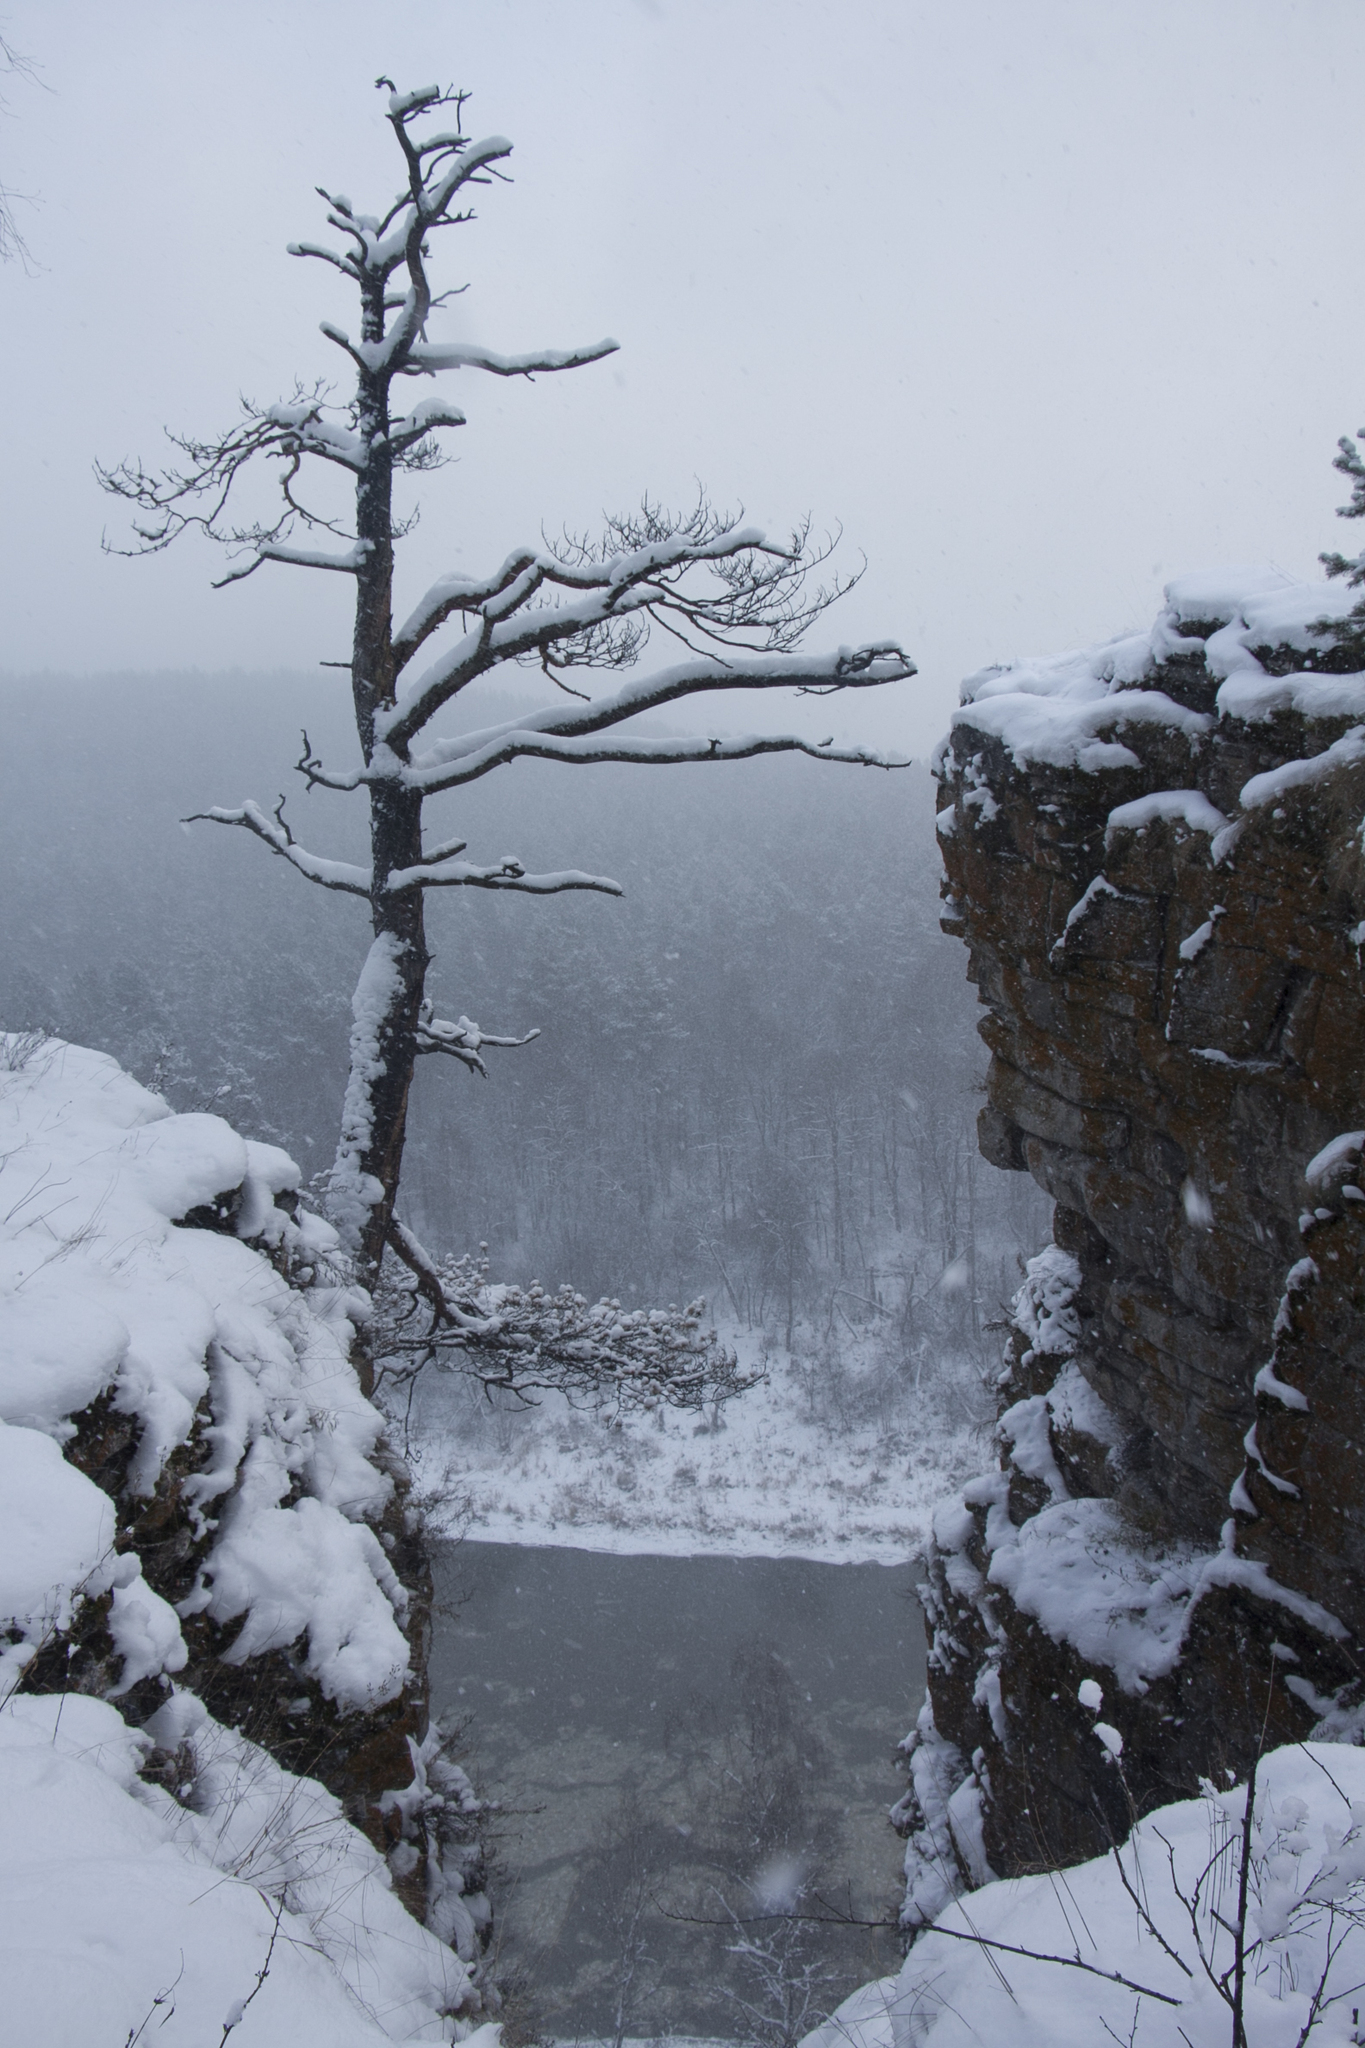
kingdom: Plantae
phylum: Tracheophyta
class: Pinopsida
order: Pinales
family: Pinaceae
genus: Pinus
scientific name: Pinus sylvestris
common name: Scots pine
